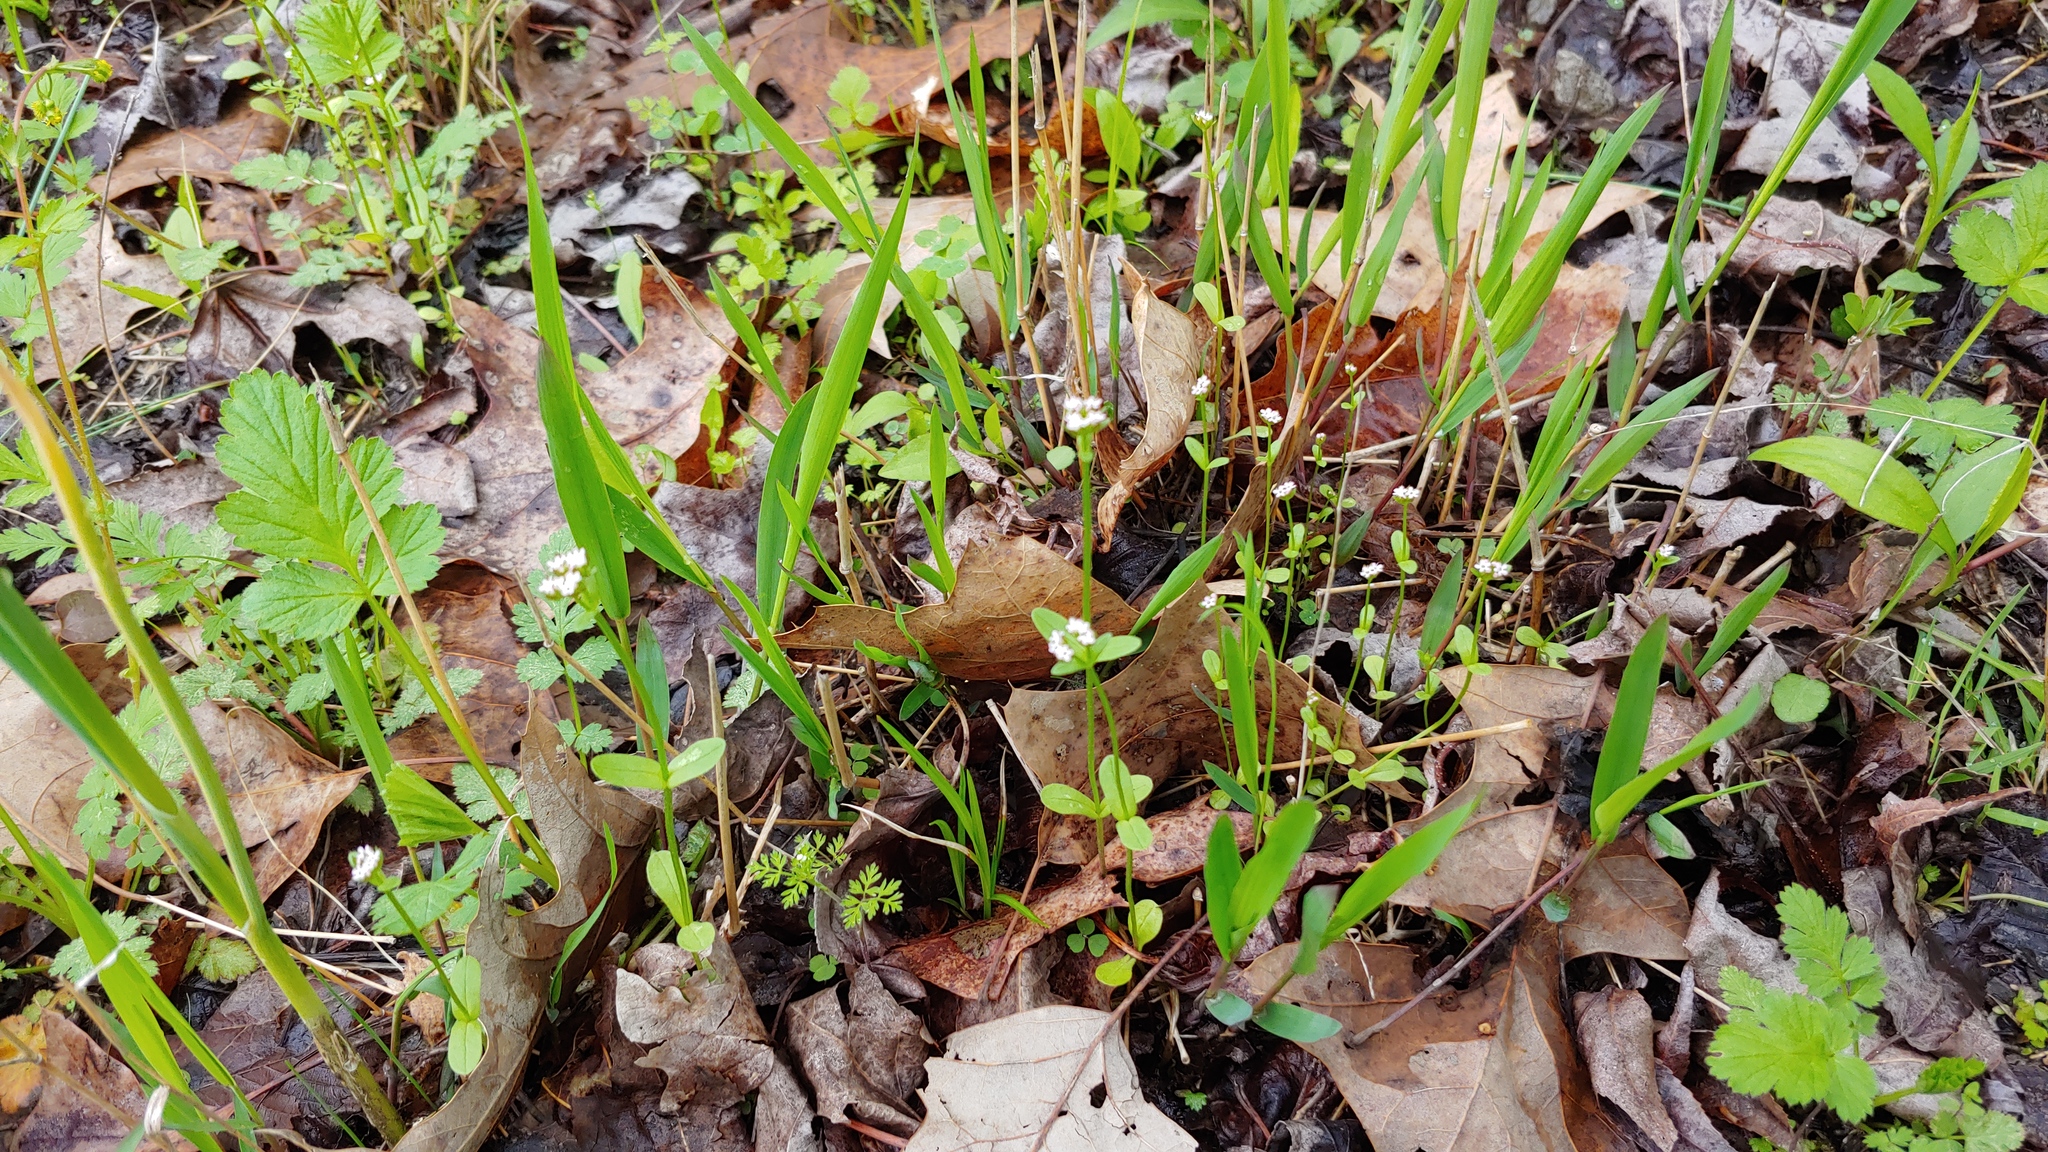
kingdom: Plantae
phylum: Tracheophyta
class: Magnoliopsida
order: Dipsacales
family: Caprifoliaceae
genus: Valerianella
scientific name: Valerianella radiata
